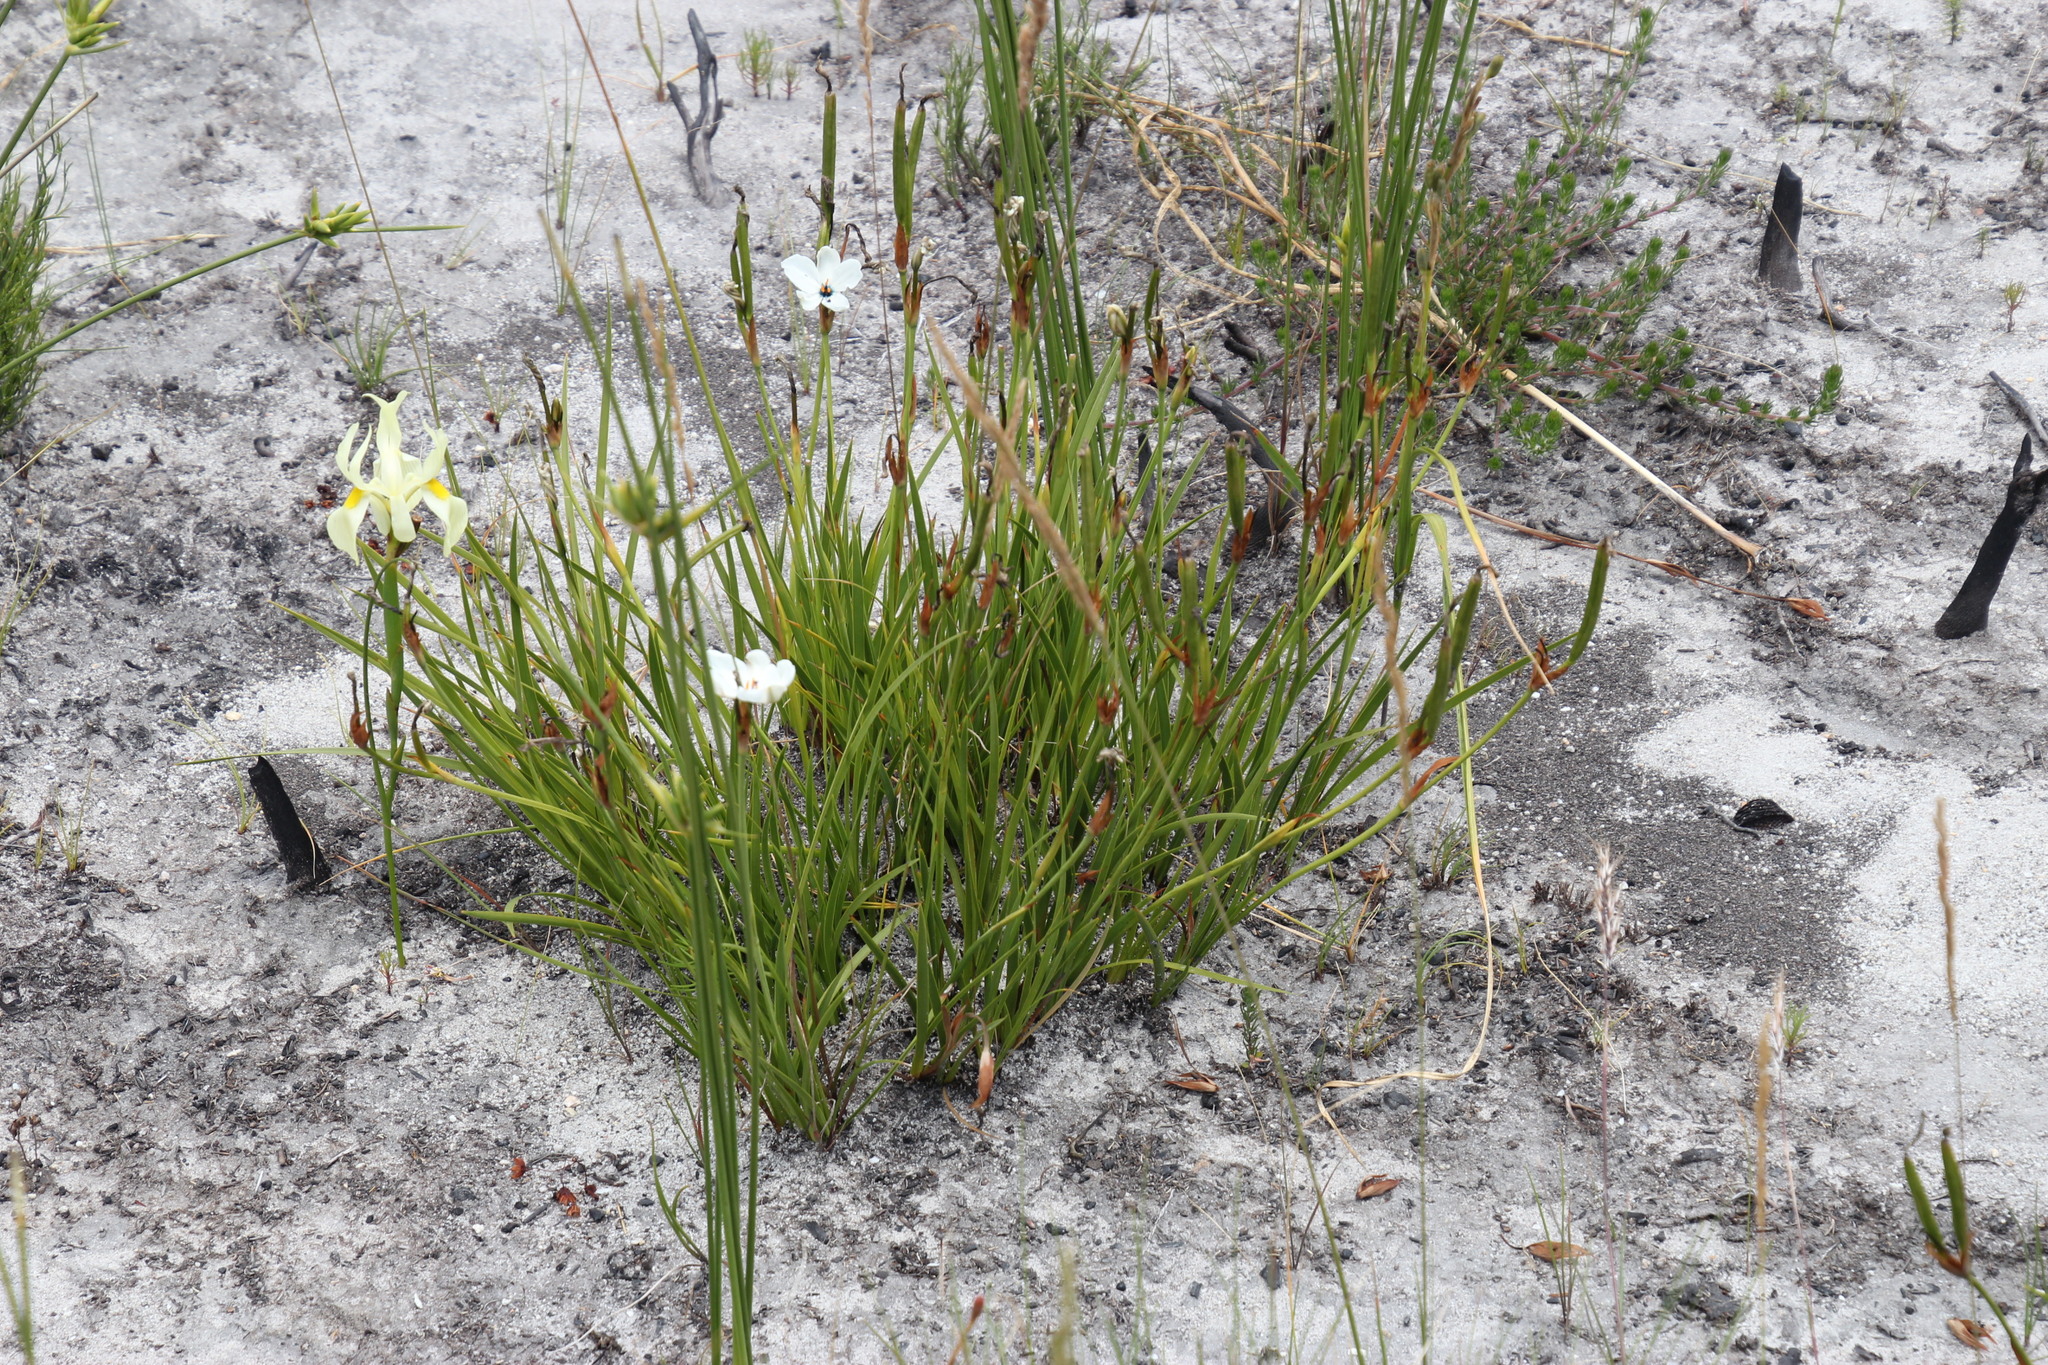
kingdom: Plantae
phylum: Tracheophyta
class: Liliopsida
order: Asparagales
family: Iridaceae
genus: Aristea
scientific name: Aristea cantharophila
